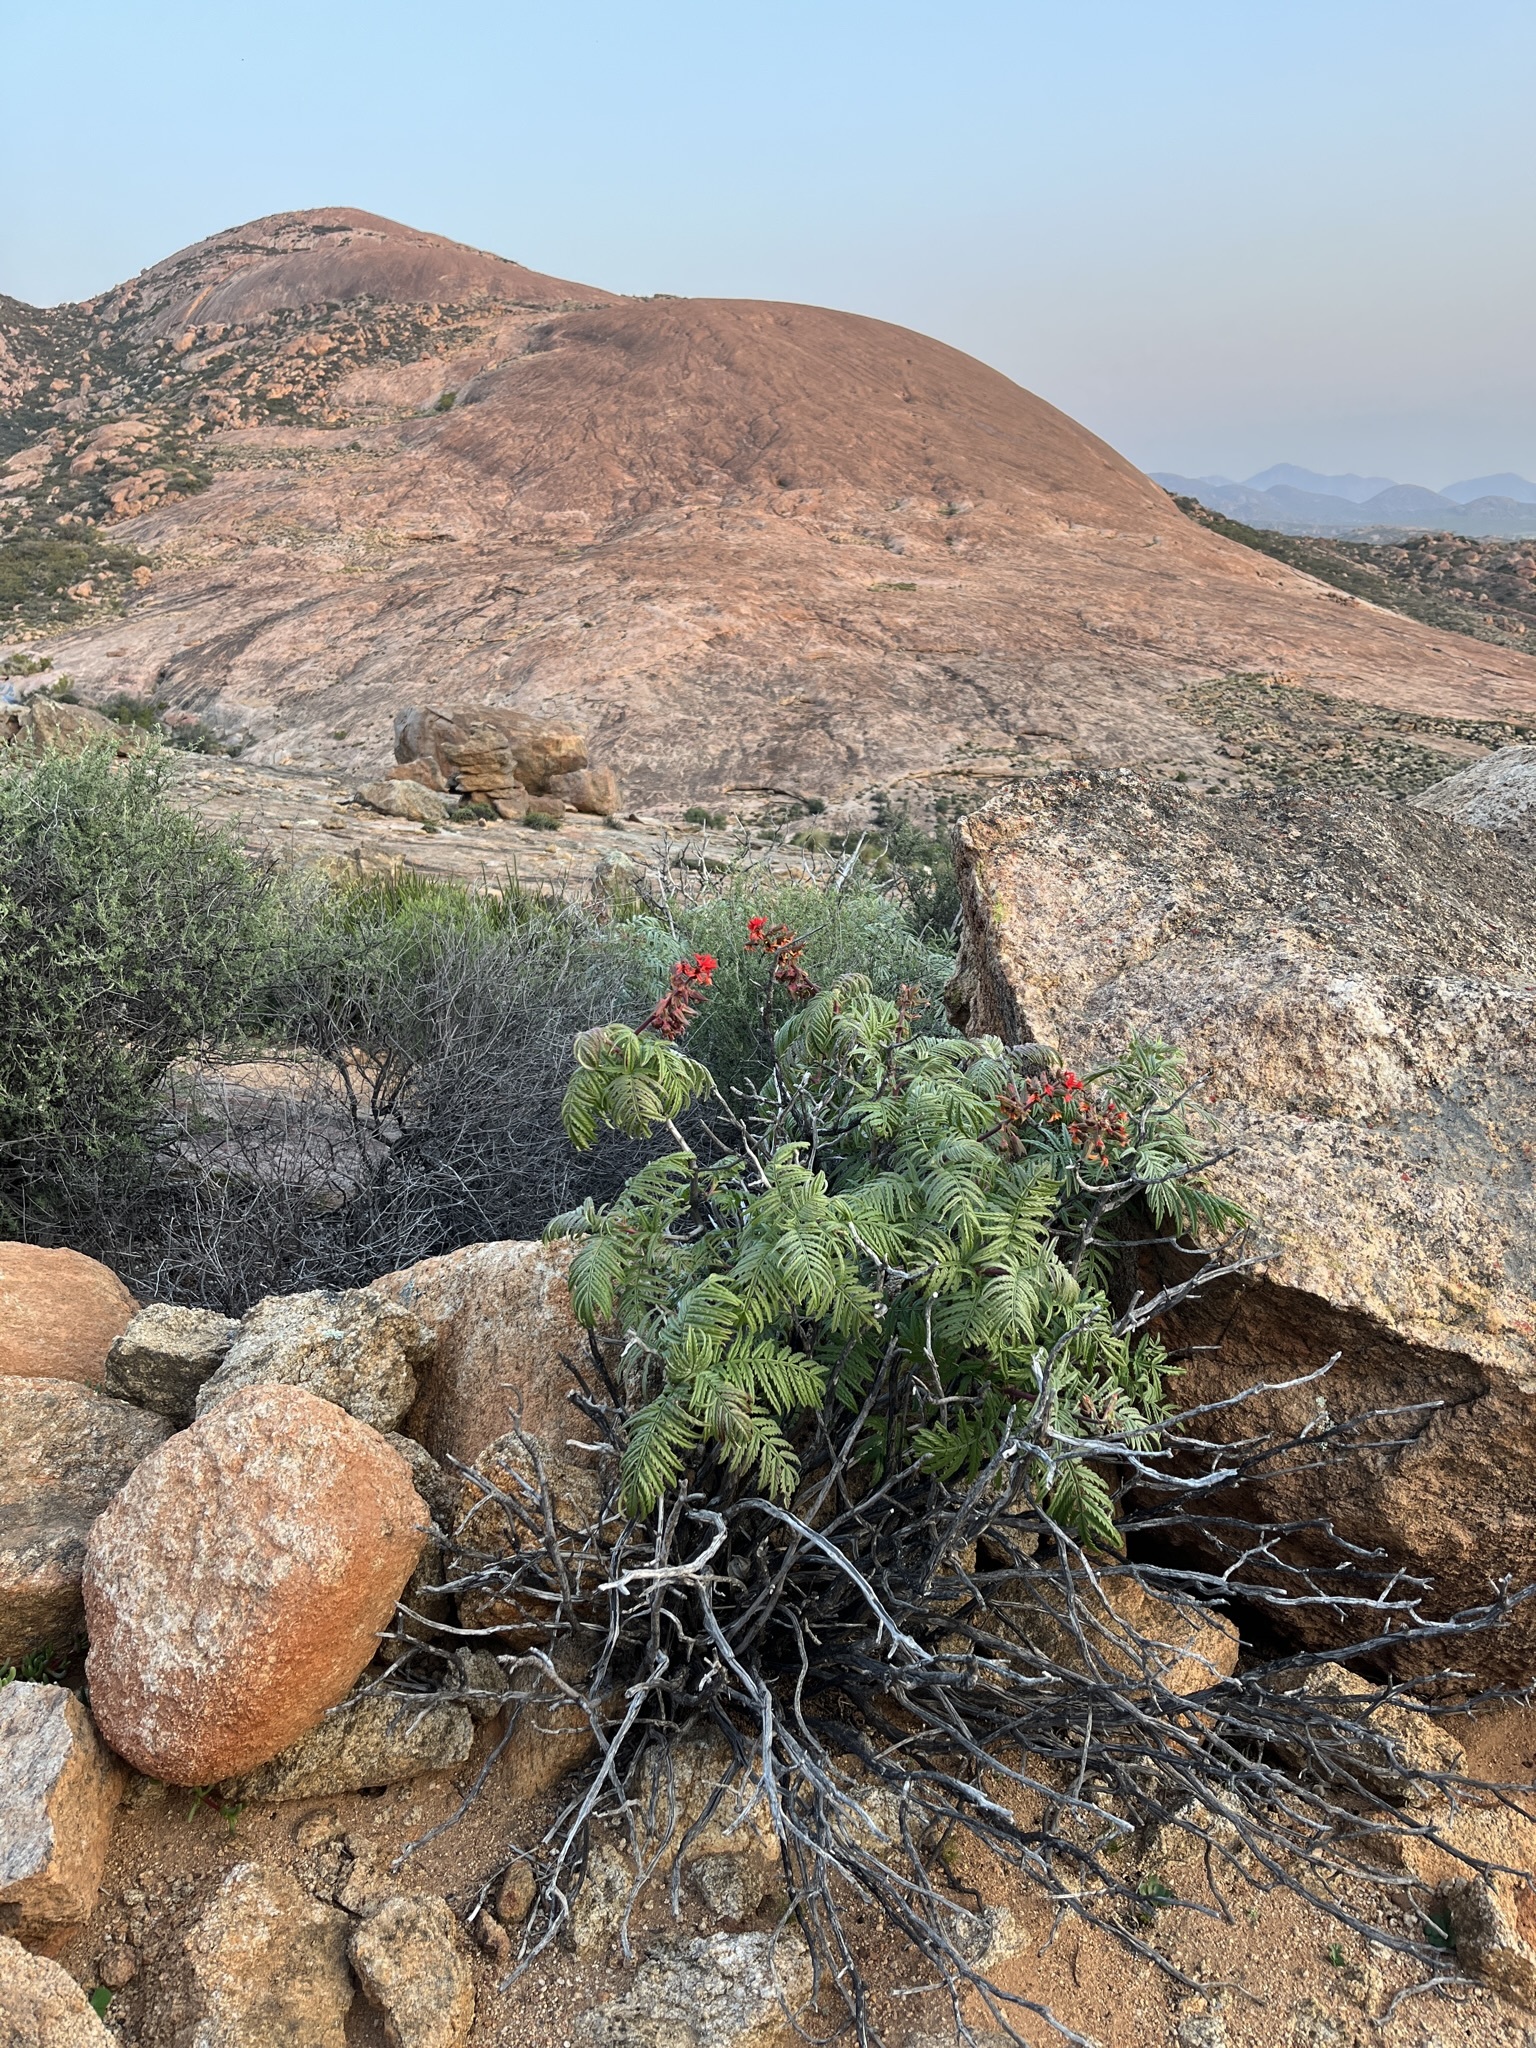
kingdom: Plantae
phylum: Tracheophyta
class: Magnoliopsida
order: Geraniales
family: Melianthaceae
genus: Melianthus
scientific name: Melianthus pectinatus
